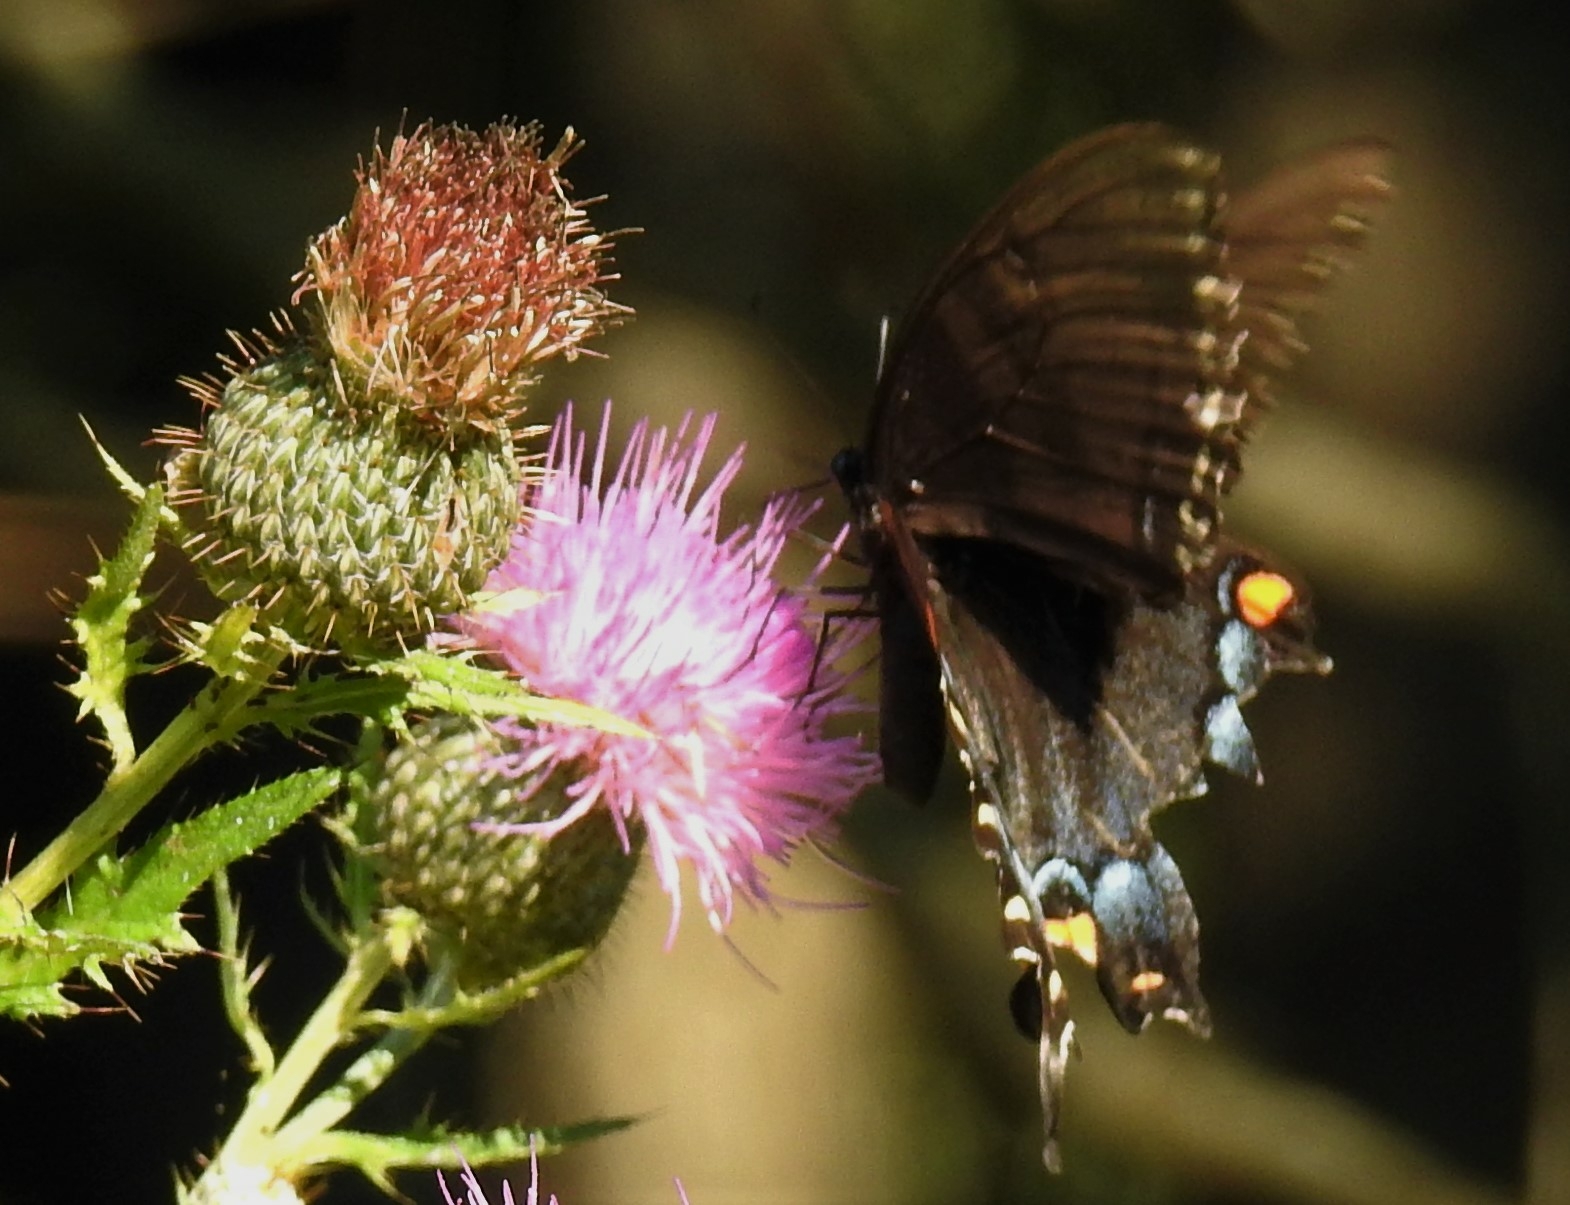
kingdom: Animalia
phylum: Arthropoda
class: Insecta
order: Lepidoptera
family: Papilionidae
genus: Papilio
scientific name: Papilio troilus
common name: Spicebush swallowtail
